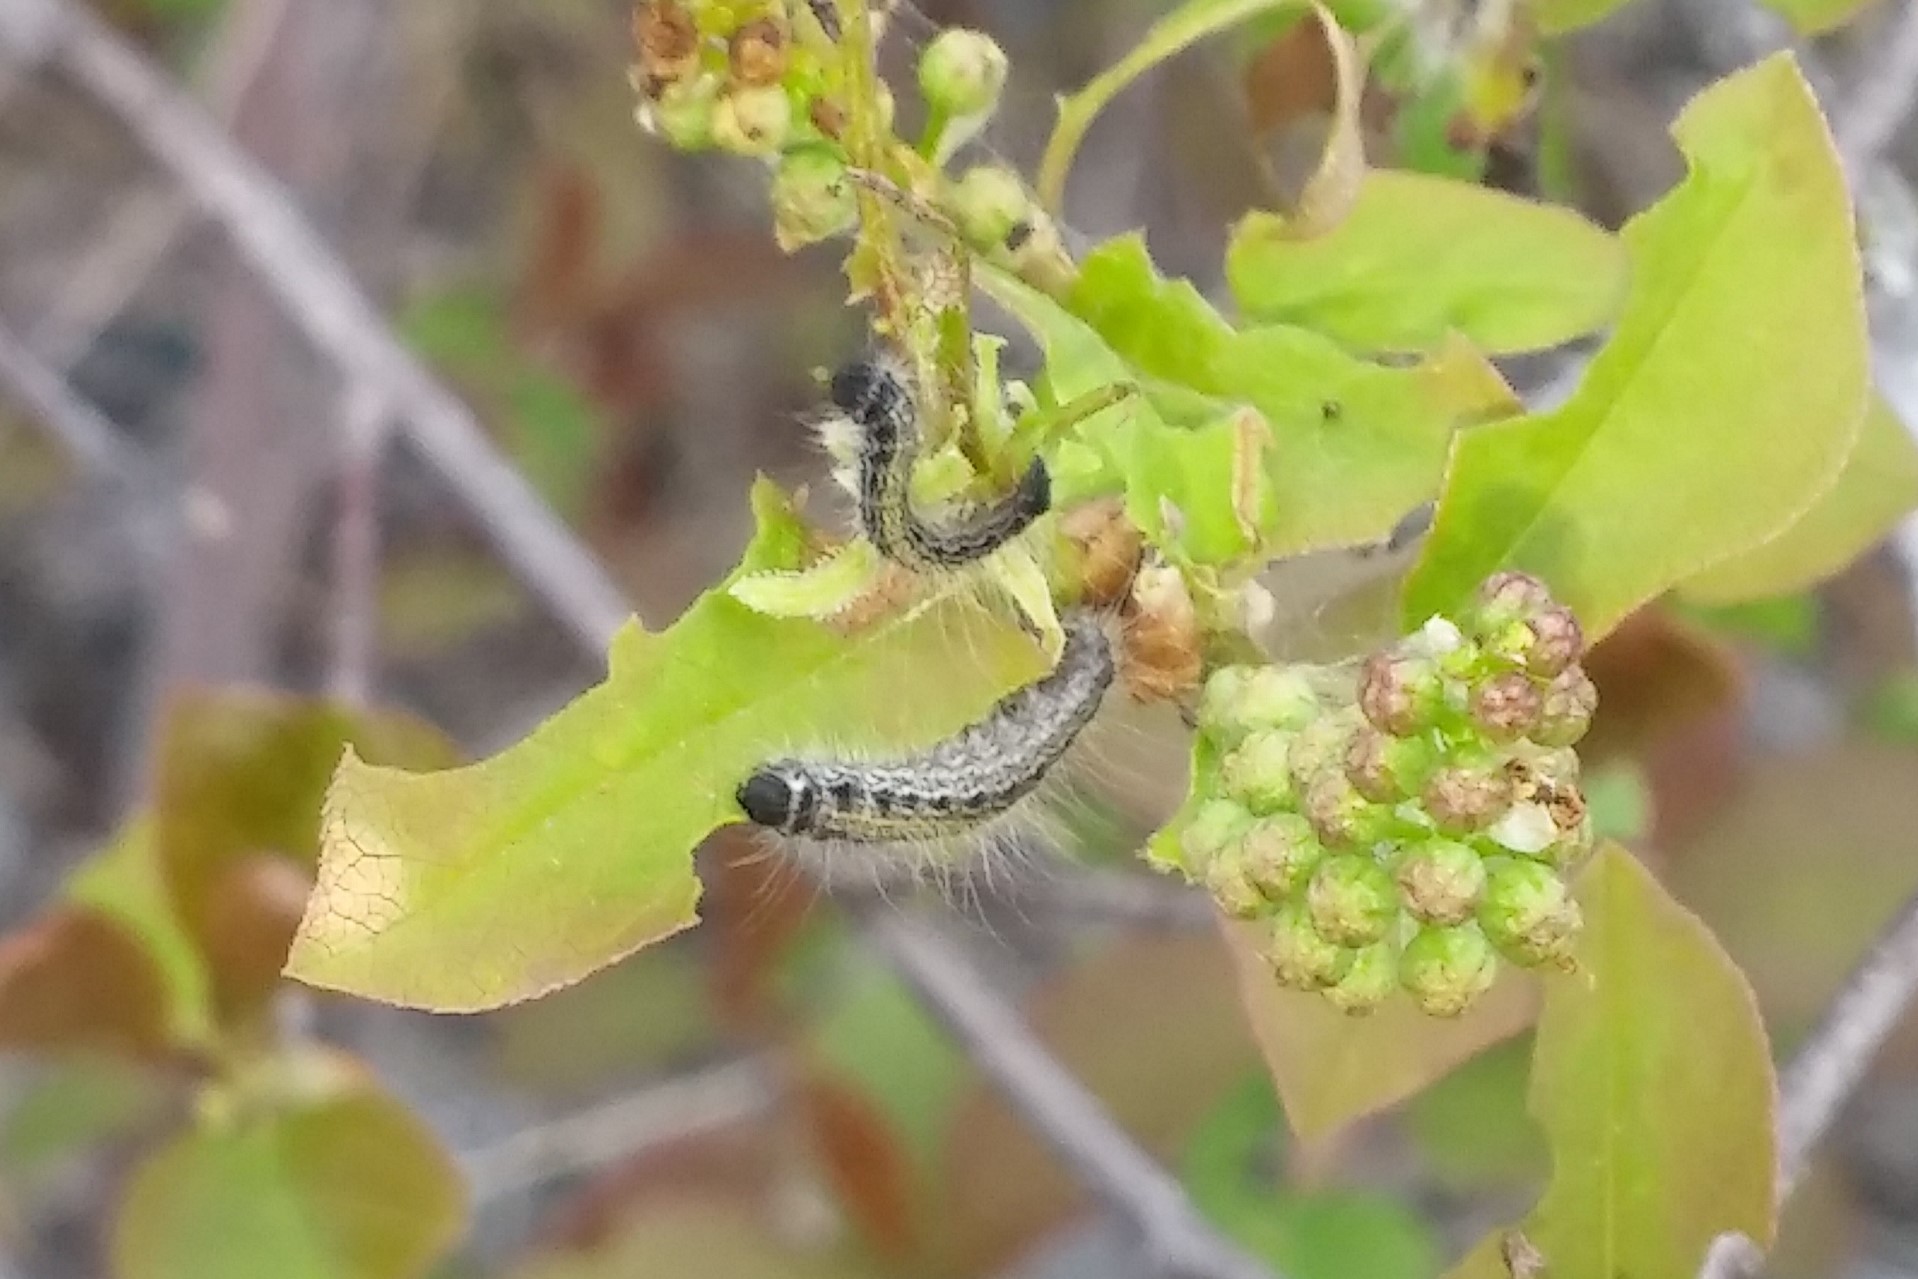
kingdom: Animalia
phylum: Arthropoda
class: Insecta
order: Lepidoptera
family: Lasiocampidae
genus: Malacosoma
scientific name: Malacosoma americana
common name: Eastern tent caterpillar moth
